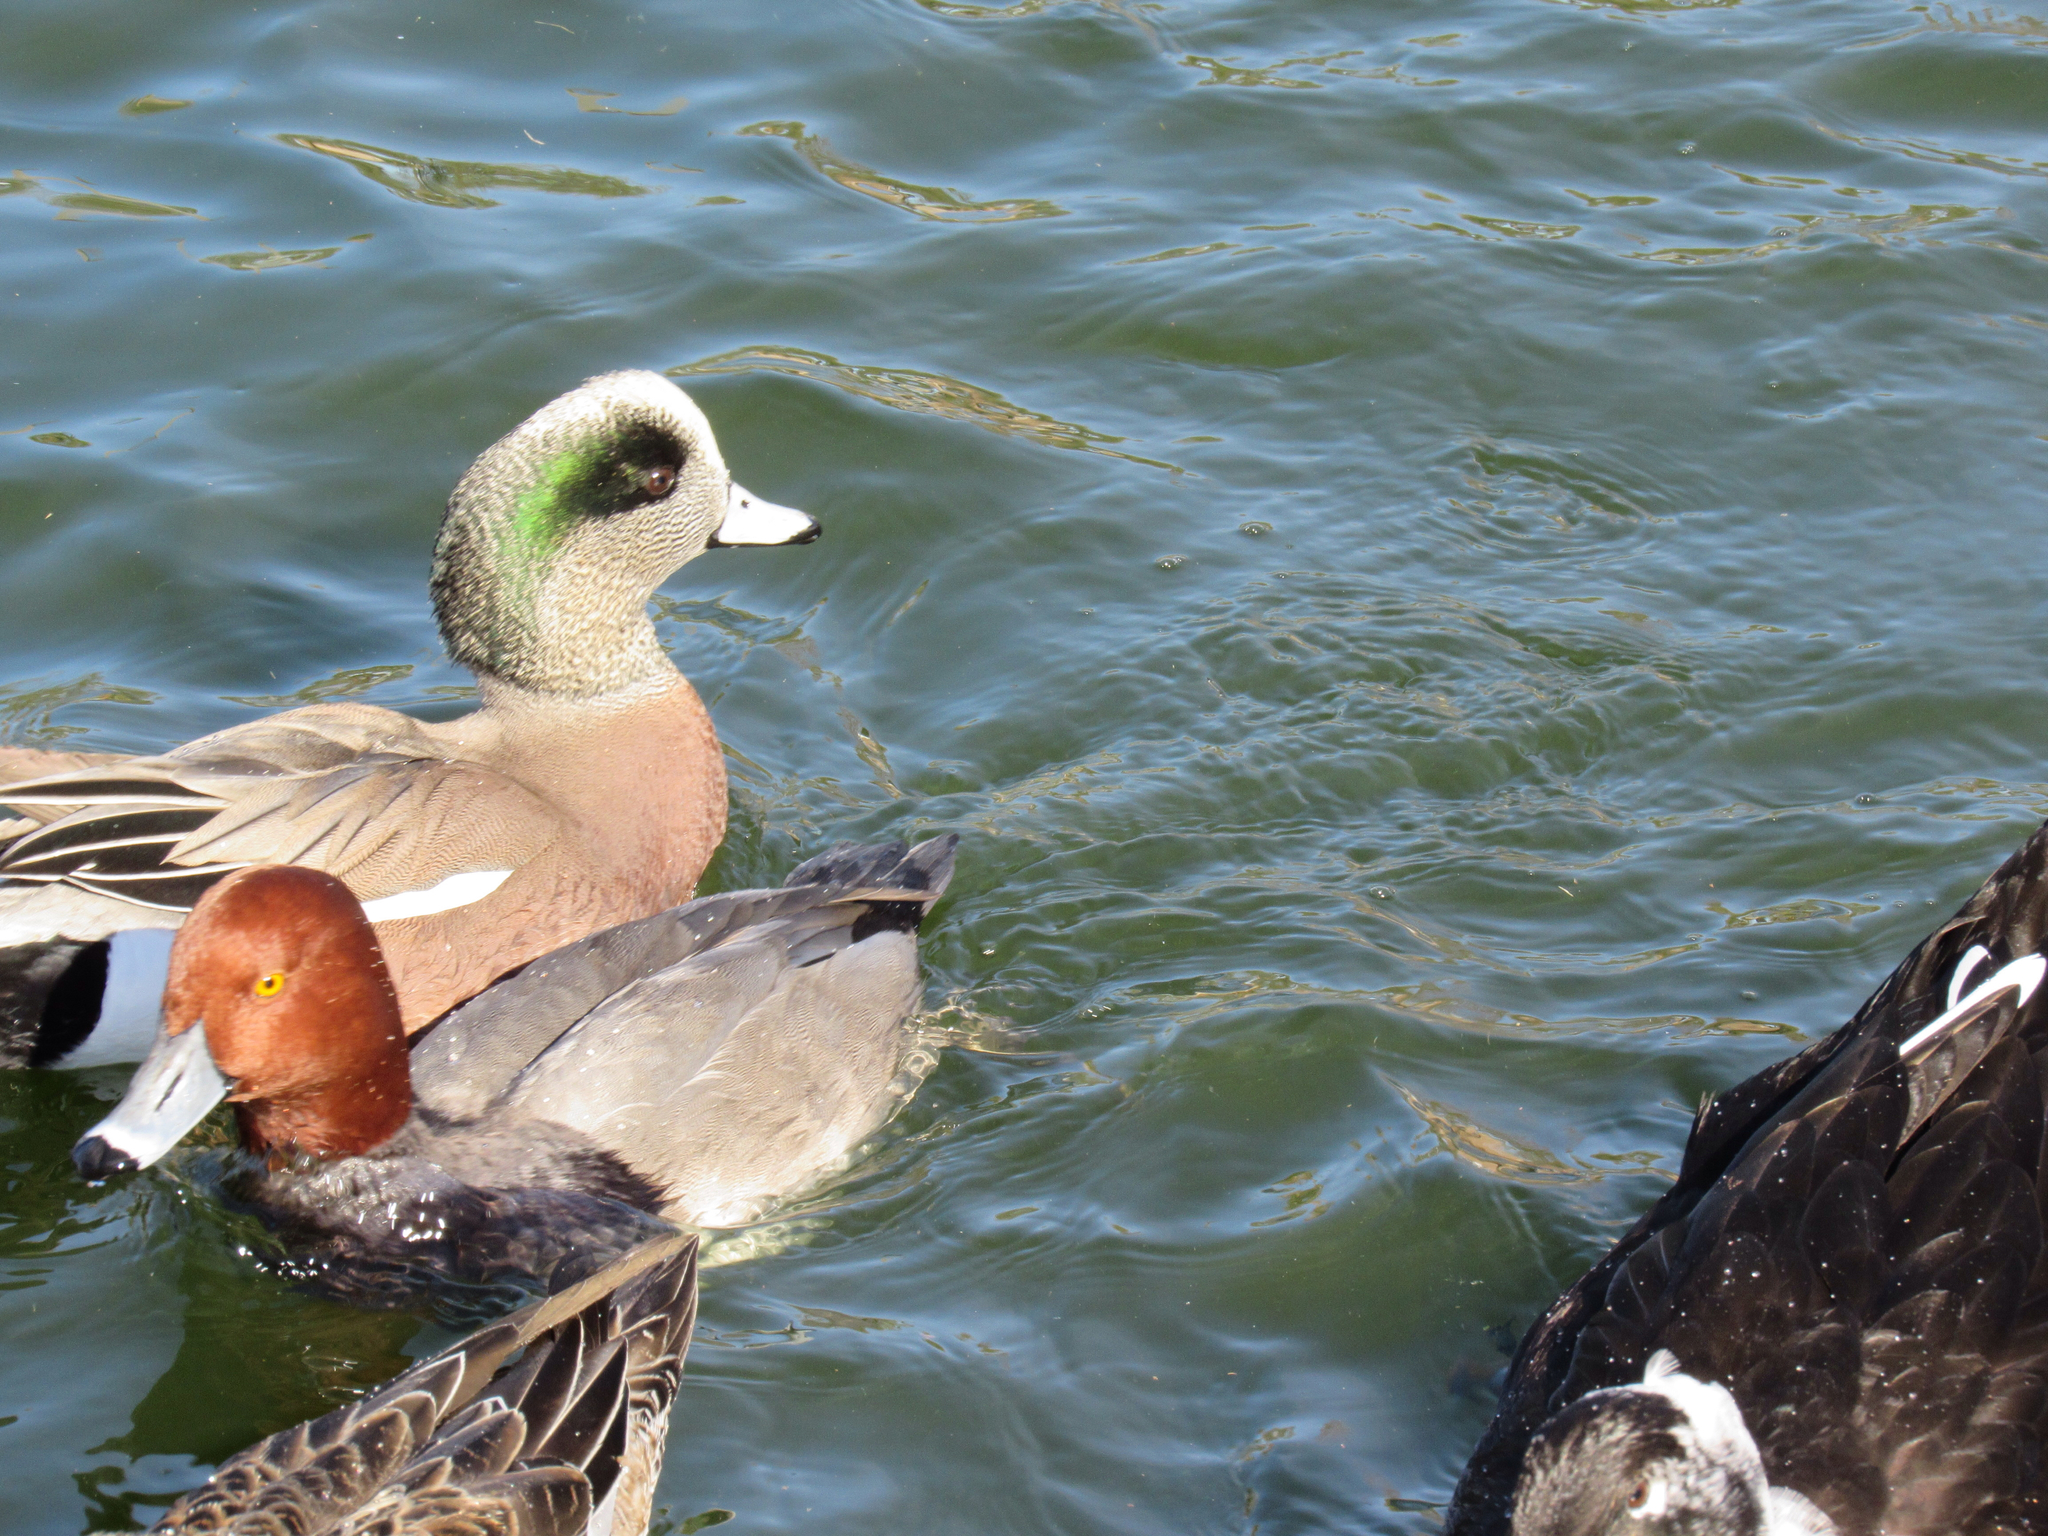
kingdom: Animalia
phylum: Chordata
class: Aves
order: Anseriformes
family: Anatidae
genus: Aythya
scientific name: Aythya americana
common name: Redhead
